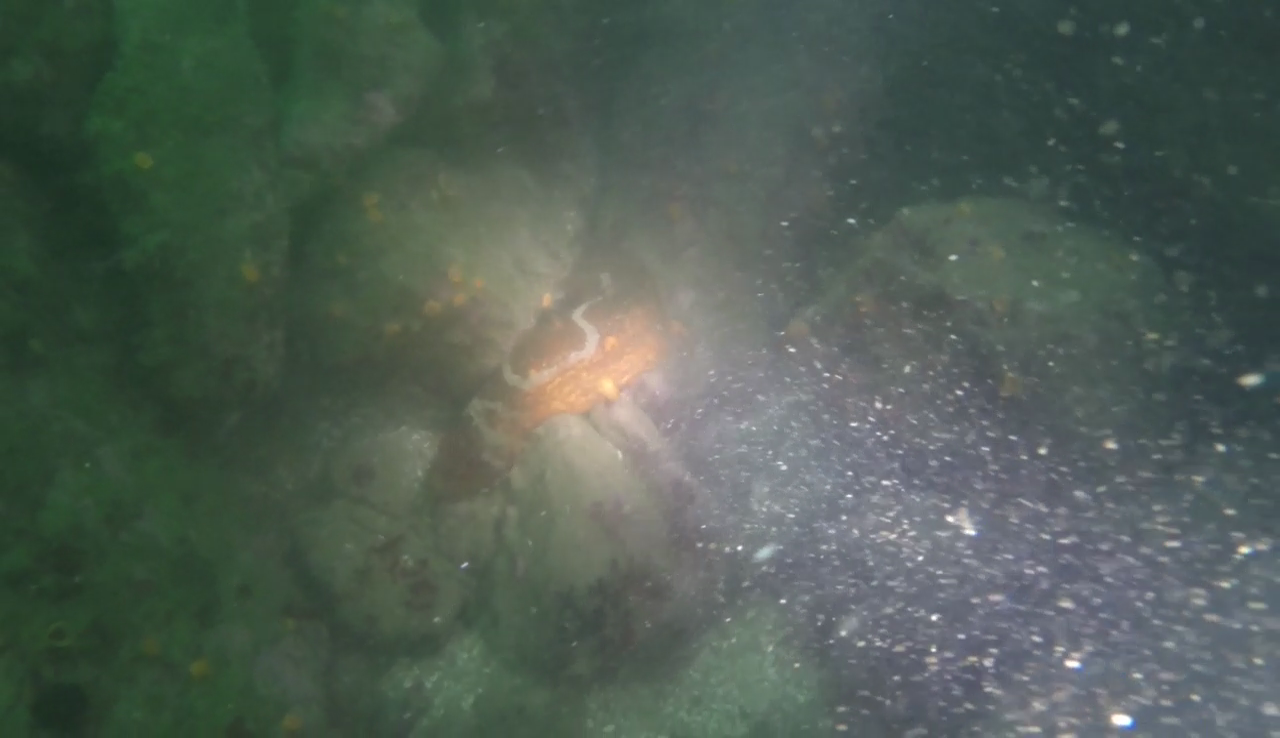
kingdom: Animalia
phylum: Echinodermata
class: Holothuroidea
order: Synallactida
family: Stichopodidae
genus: Apostichopus
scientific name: Apostichopus parvimensis
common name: Warty sea cucumber
